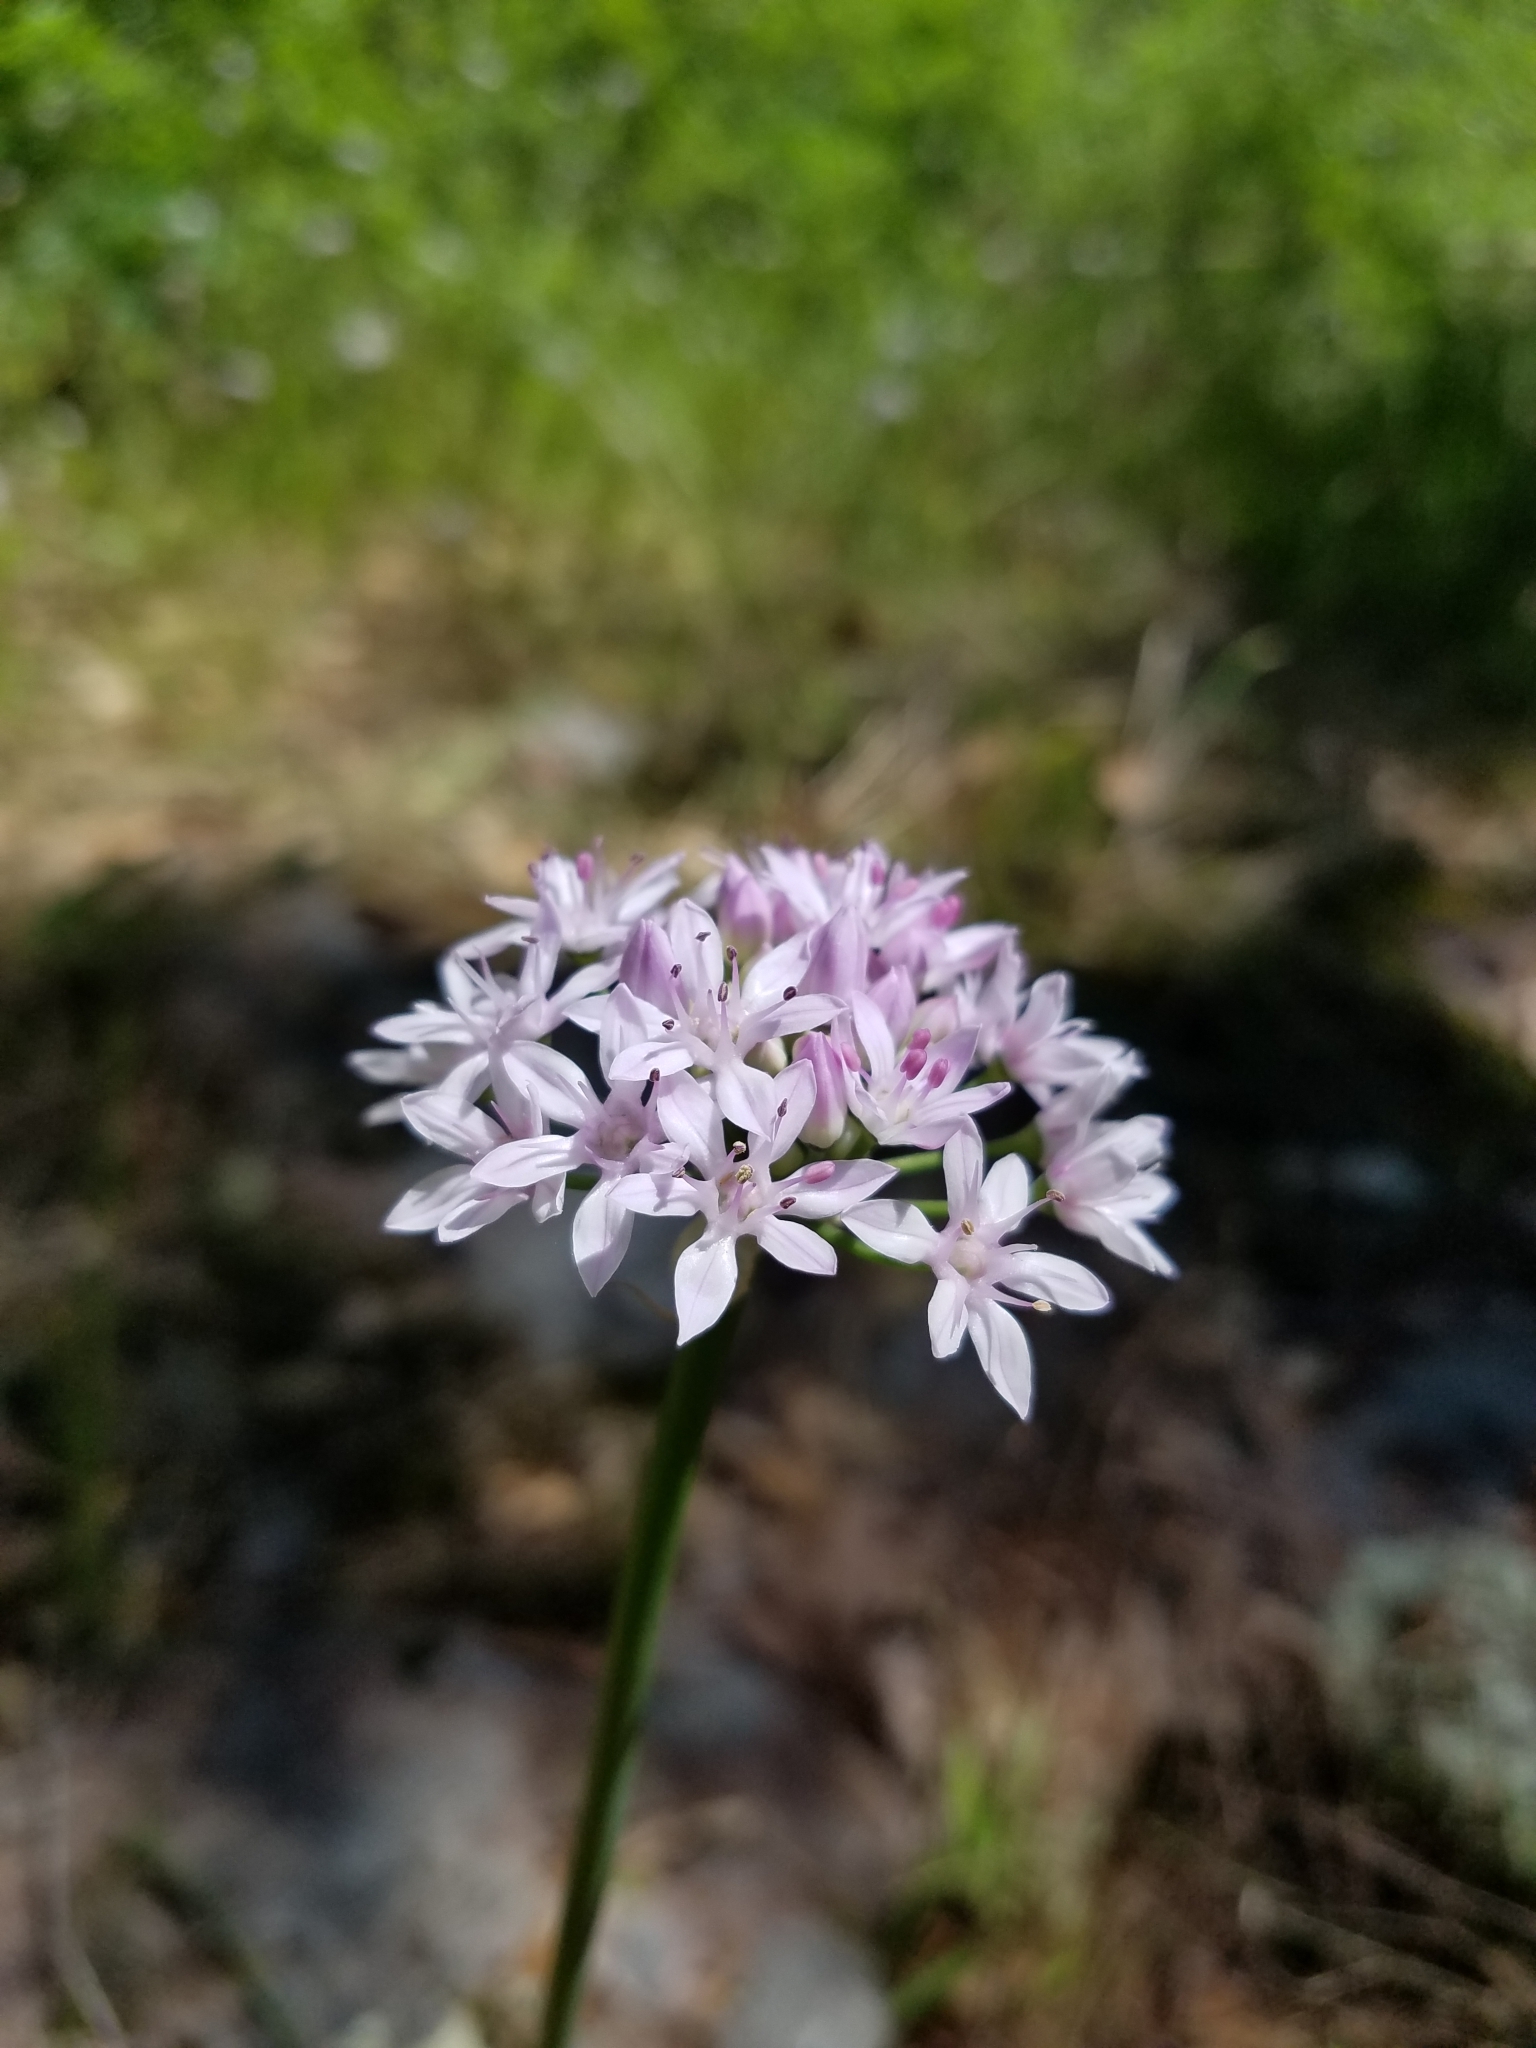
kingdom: Plantae
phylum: Tracheophyta
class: Liliopsida
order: Asparagales
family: Amaryllidaceae
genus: Allium
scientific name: Allium canadense
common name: Meadow garlic
